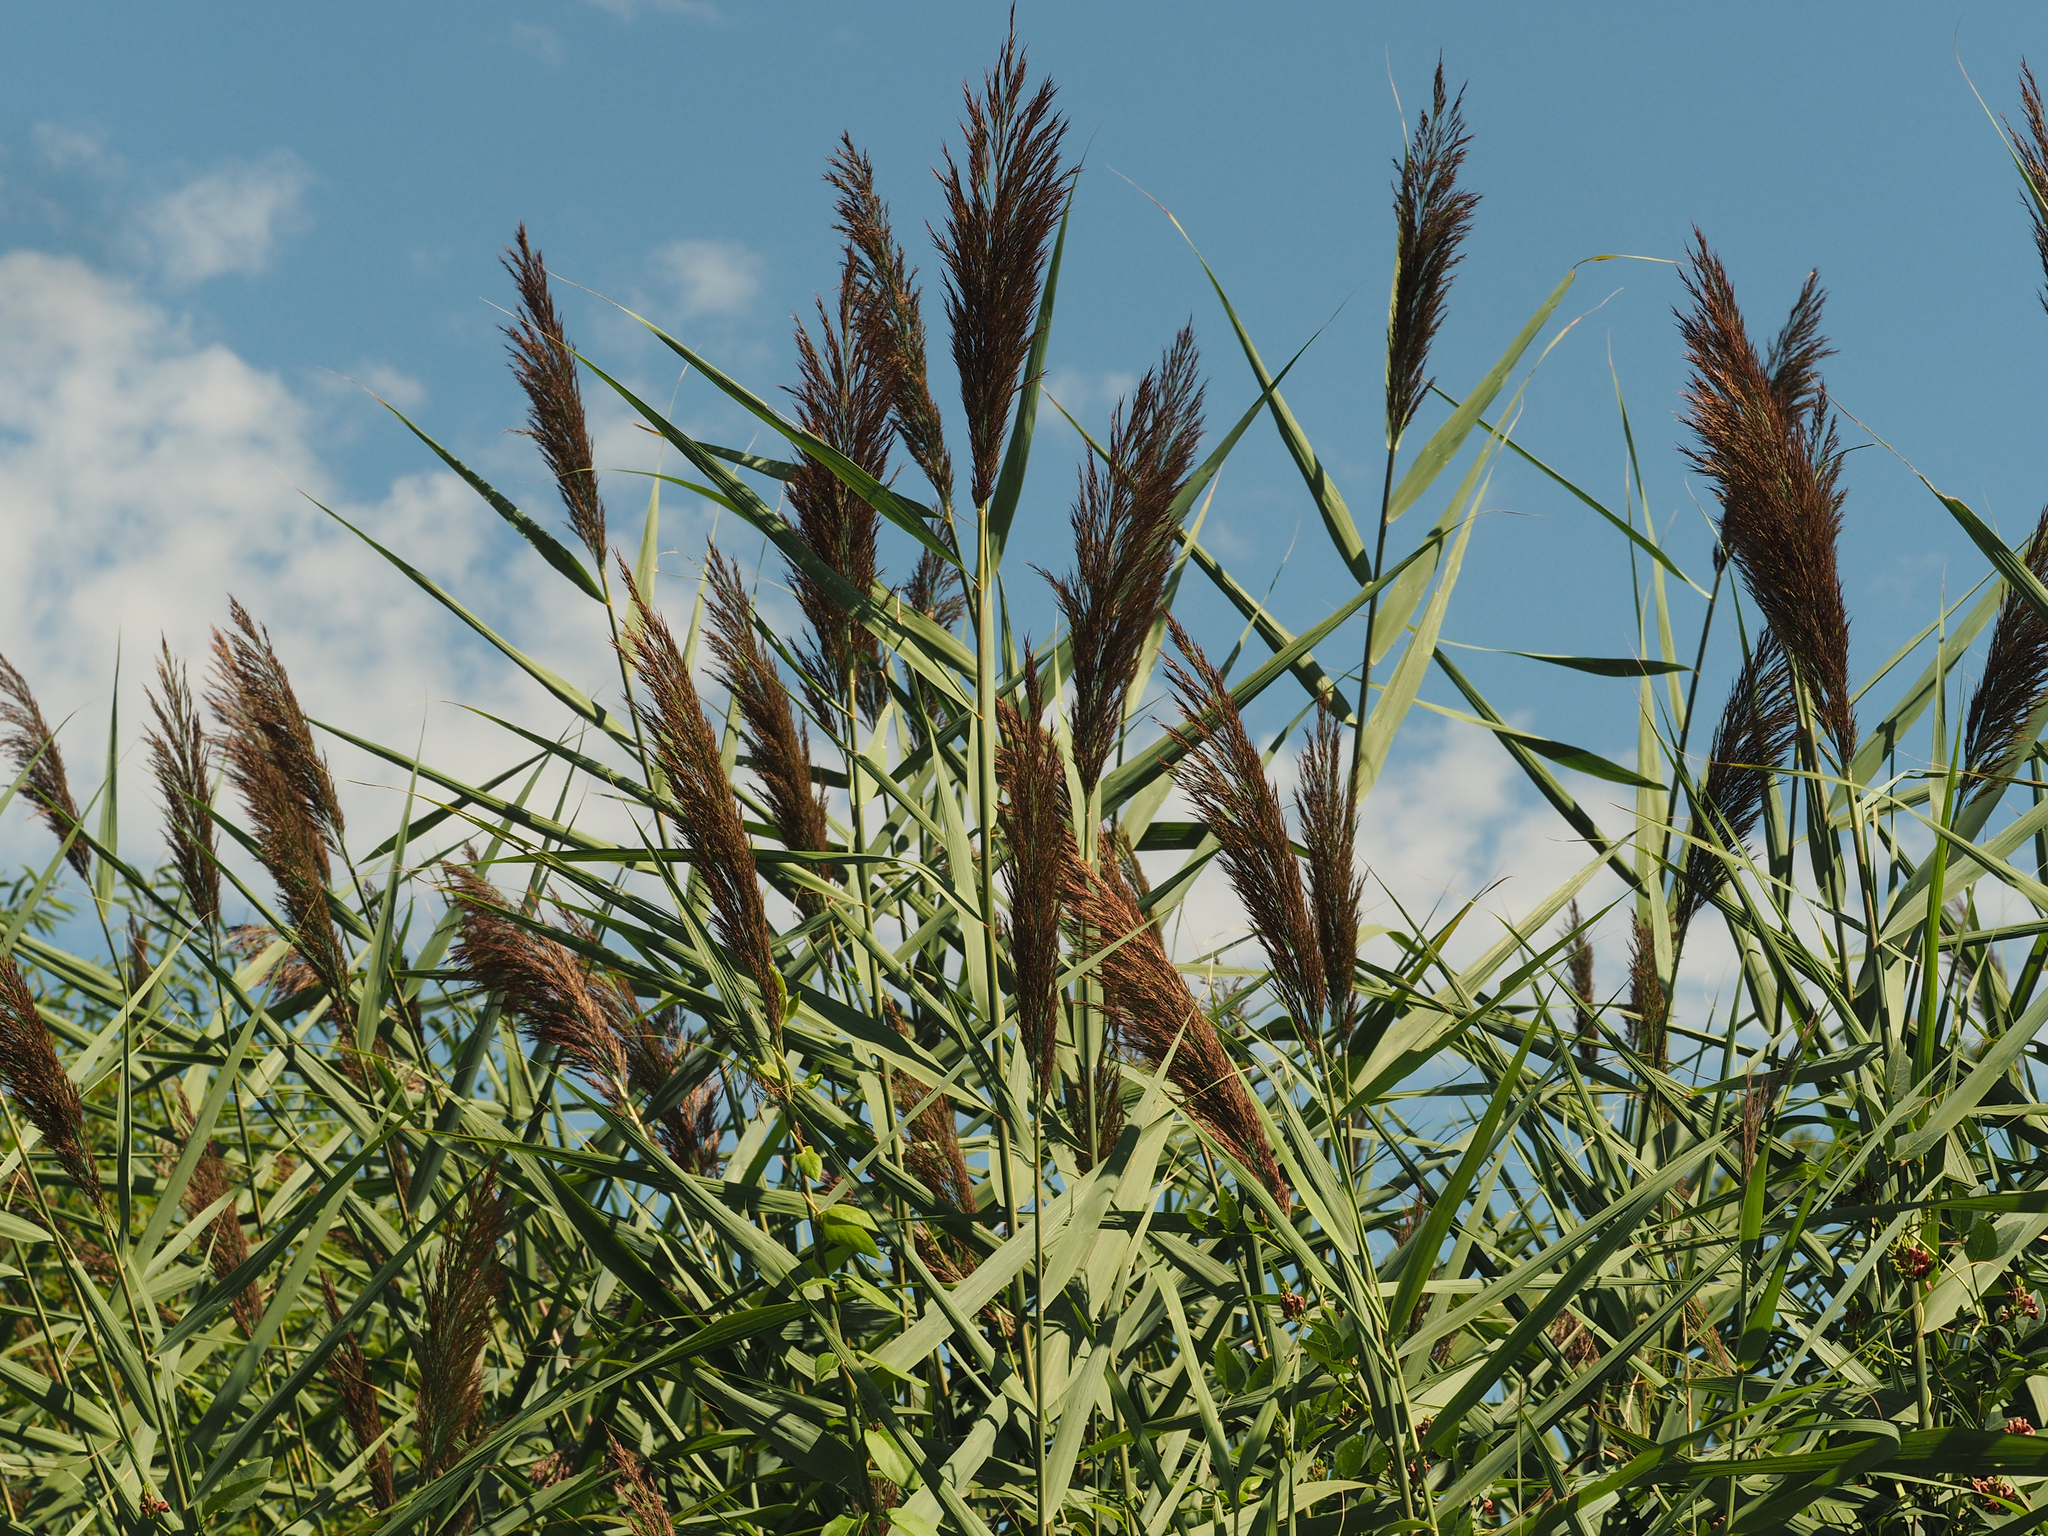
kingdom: Plantae
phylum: Tracheophyta
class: Liliopsida
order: Poales
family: Poaceae
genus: Phragmites
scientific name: Phragmites australis
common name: Common reed
